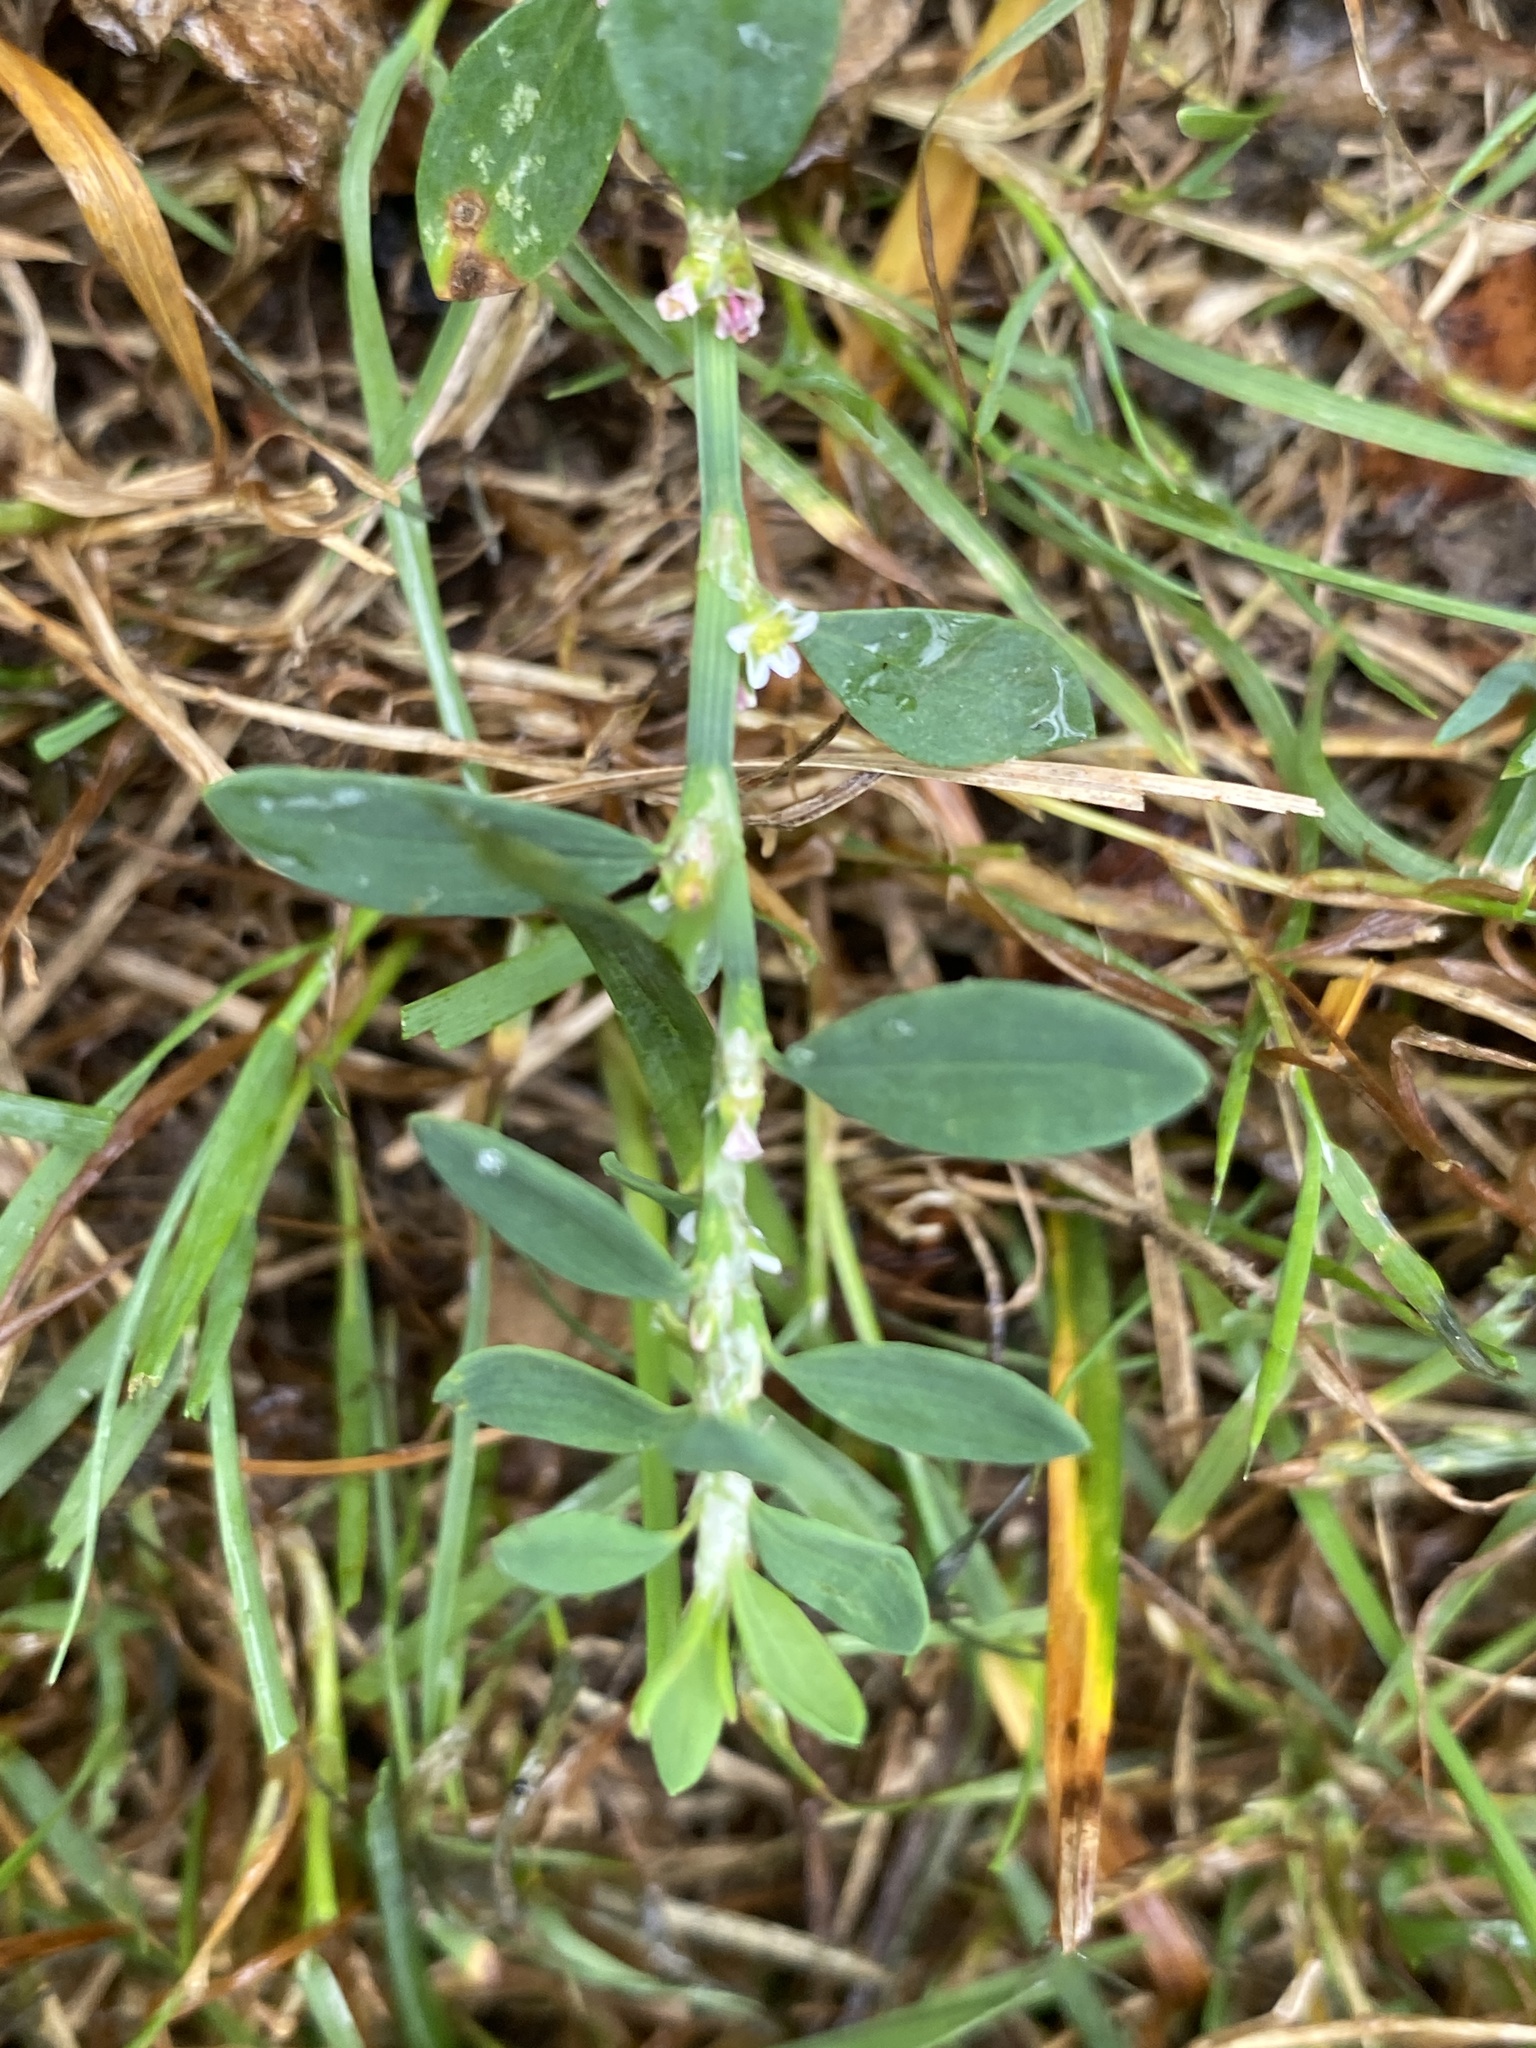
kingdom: Plantae
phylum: Tracheophyta
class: Magnoliopsida
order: Caryophyllales
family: Polygonaceae
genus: Polygonum
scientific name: Polygonum aviculare
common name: Prostrate knotweed
